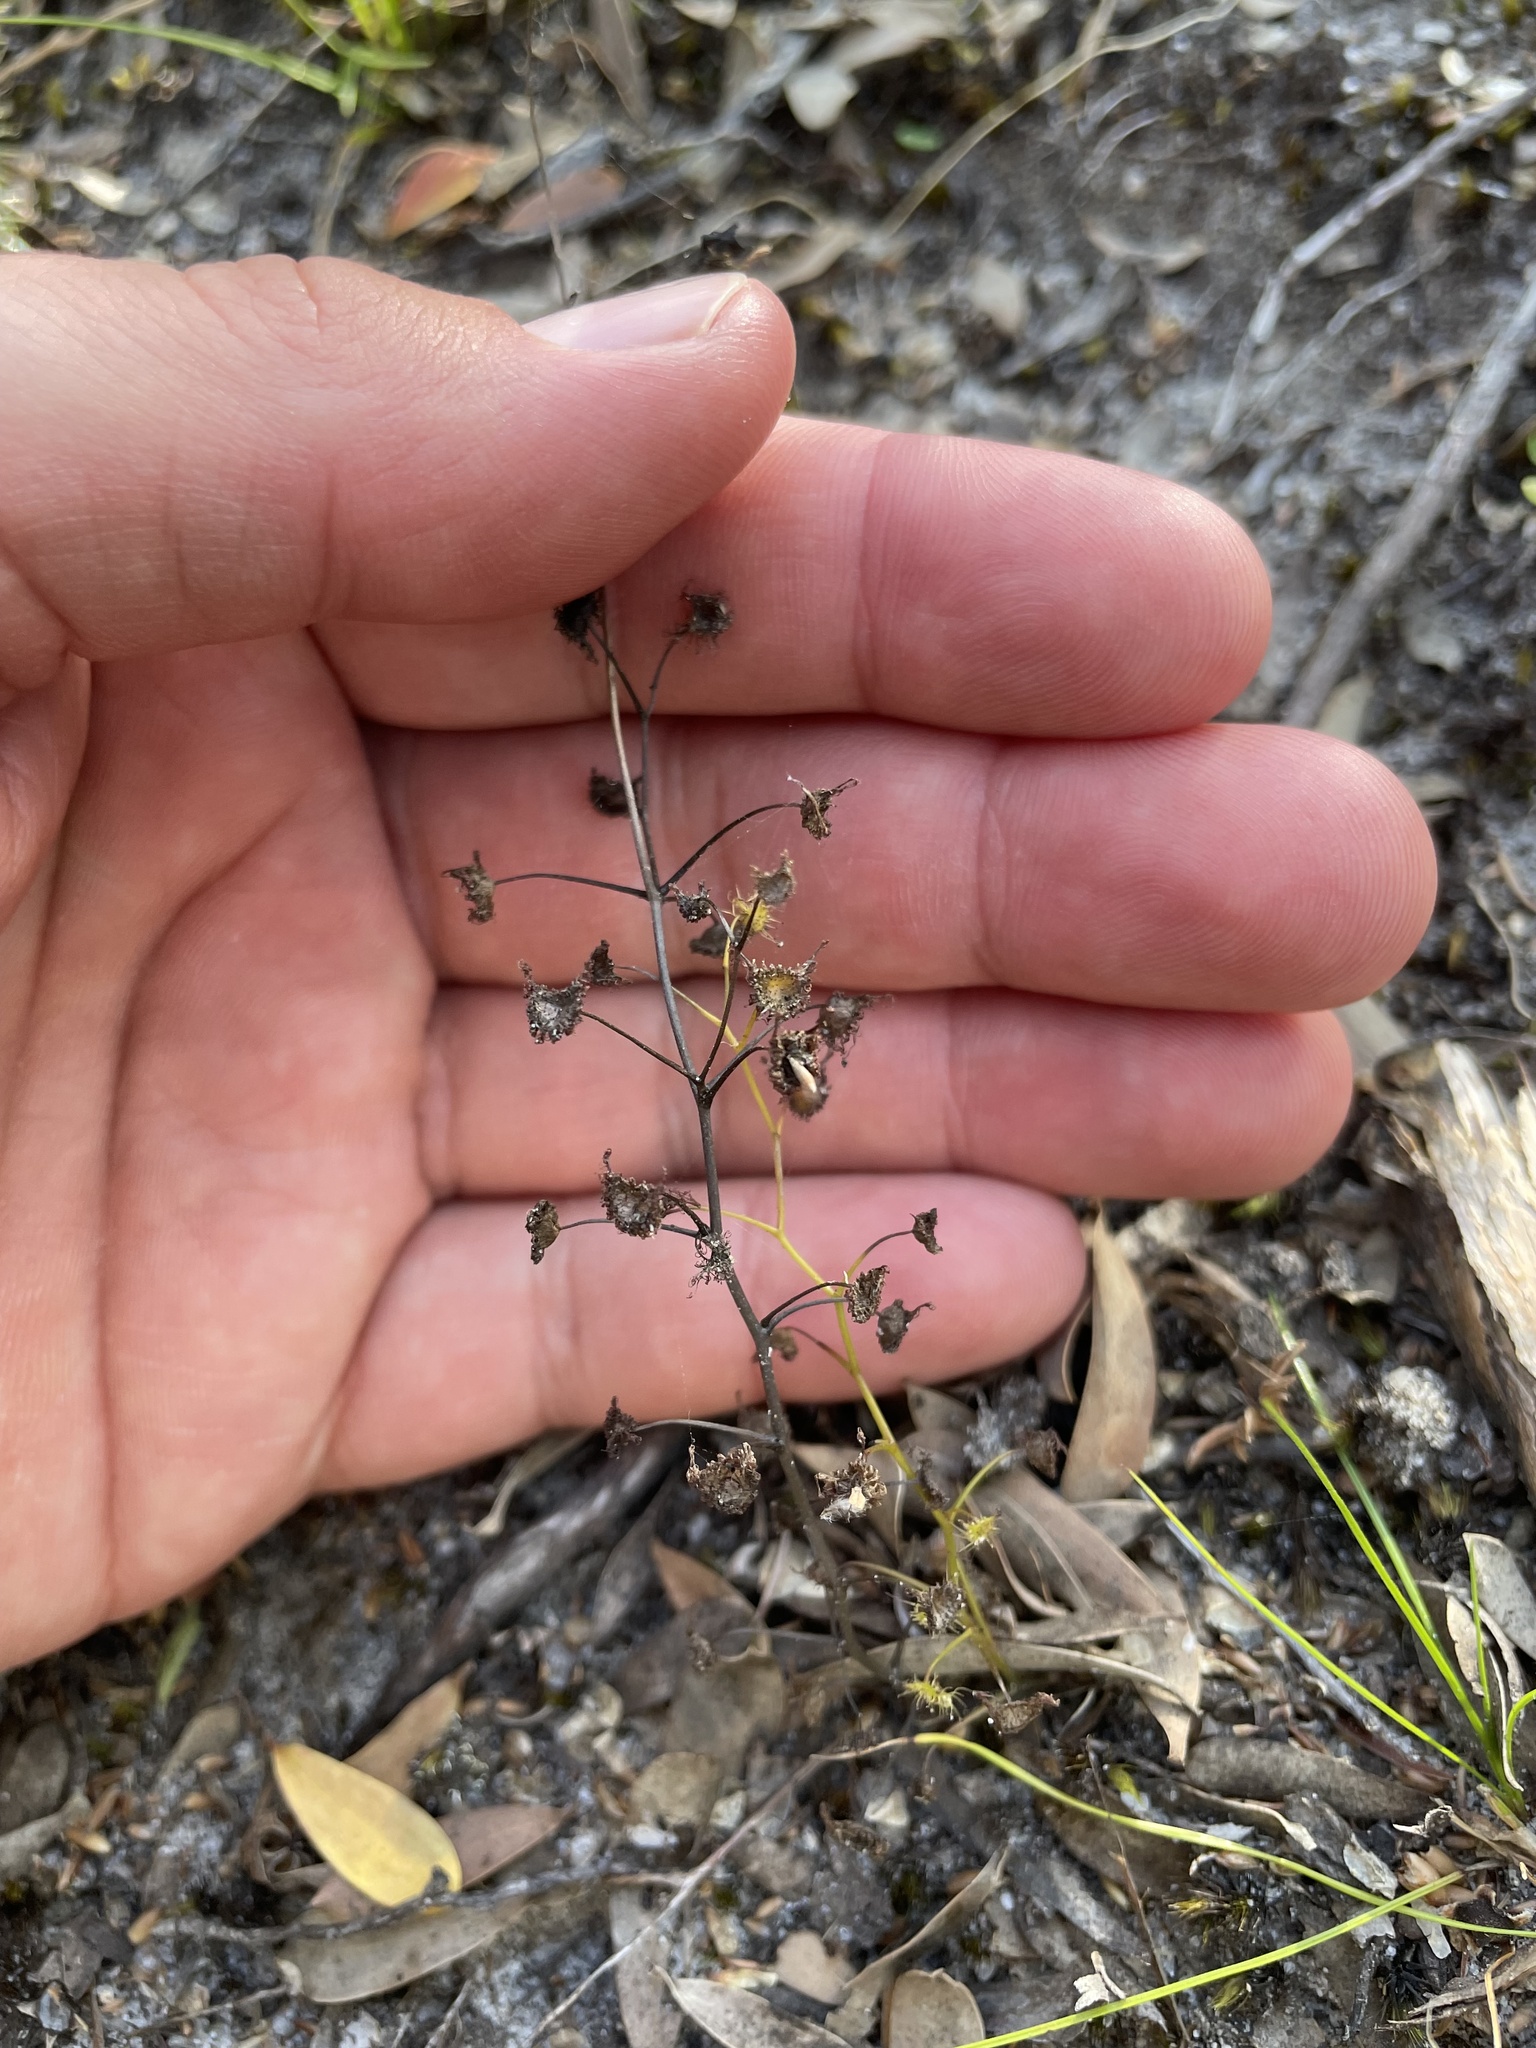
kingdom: Plantae
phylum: Tracheophyta
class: Magnoliopsida
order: Caryophyllales
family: Droseraceae
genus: Drosera
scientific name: Drosera peltata
